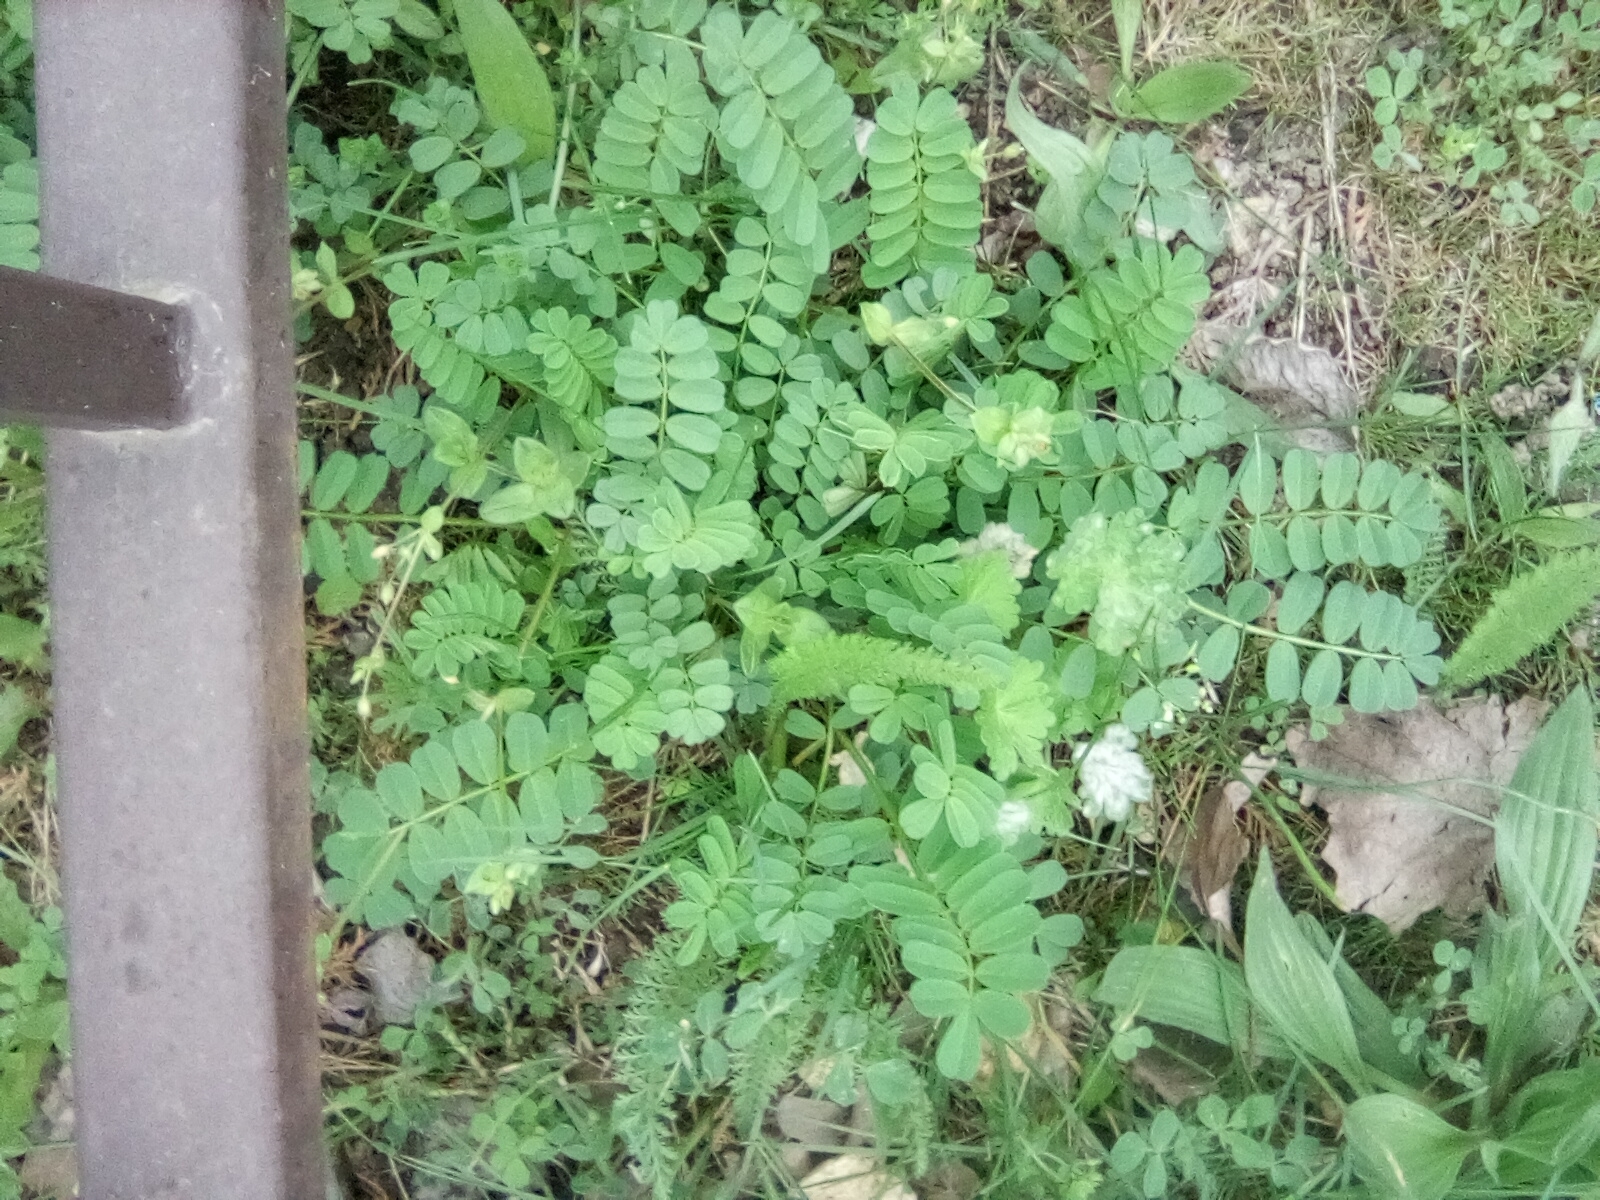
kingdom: Plantae
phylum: Tracheophyta
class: Magnoliopsida
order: Fabales
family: Fabaceae
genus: Coronilla
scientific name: Coronilla varia
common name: Crownvetch
